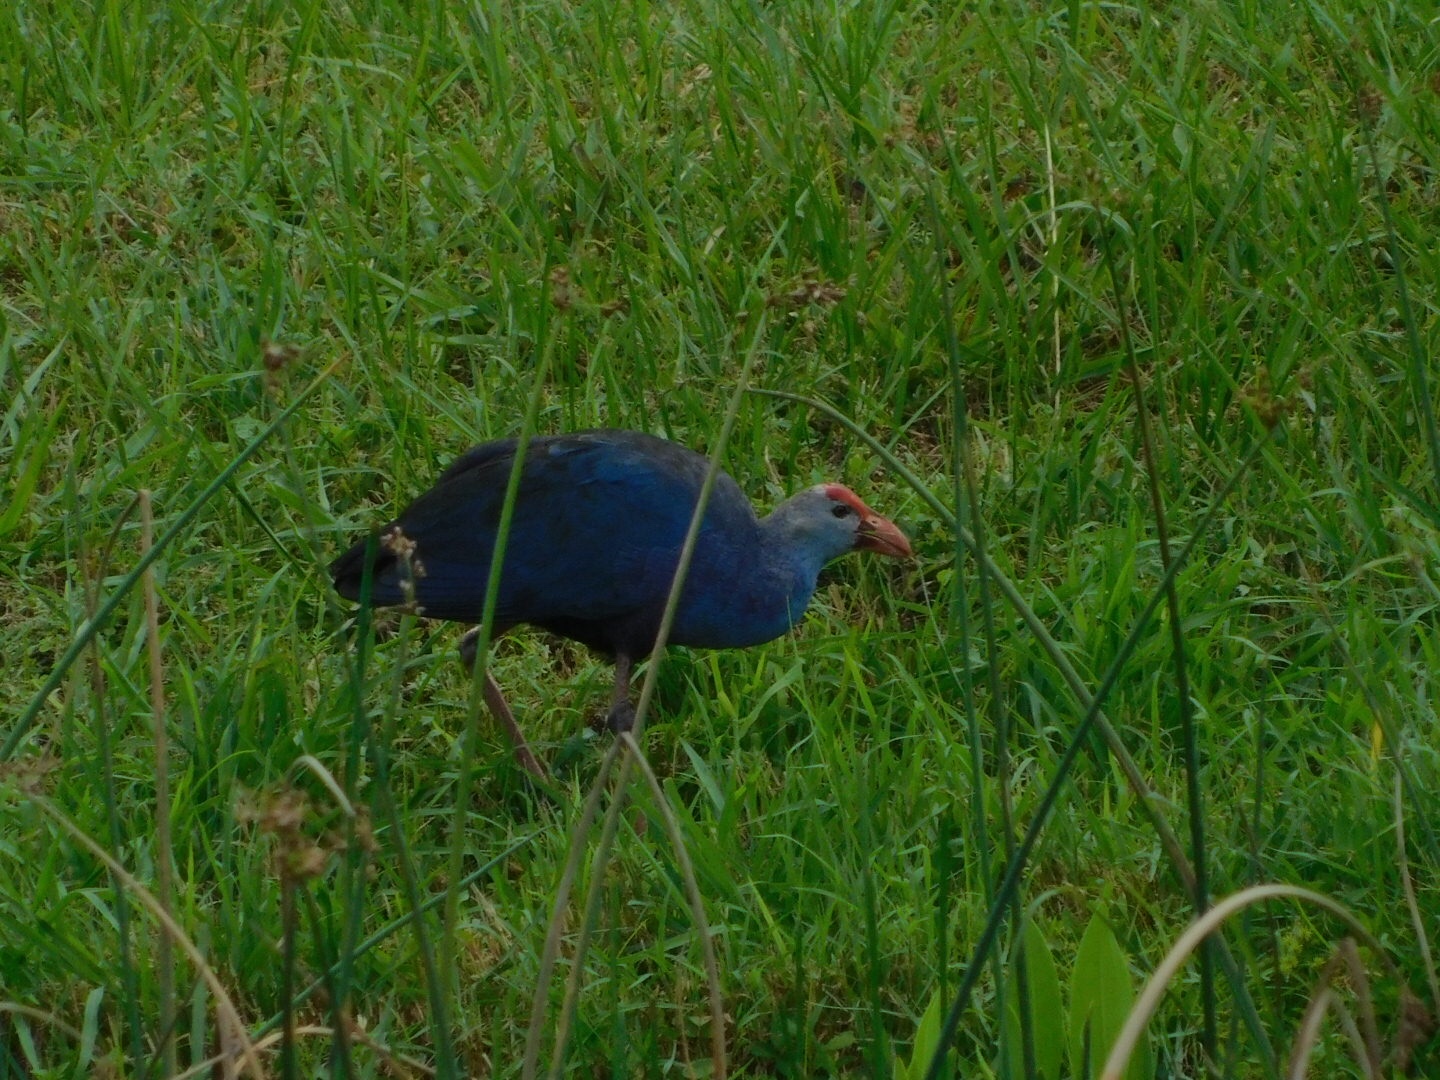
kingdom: Animalia
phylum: Chordata
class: Aves
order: Gruiformes
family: Rallidae
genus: Porphyrio
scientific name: Porphyrio porphyrio
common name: Purple swamphen
